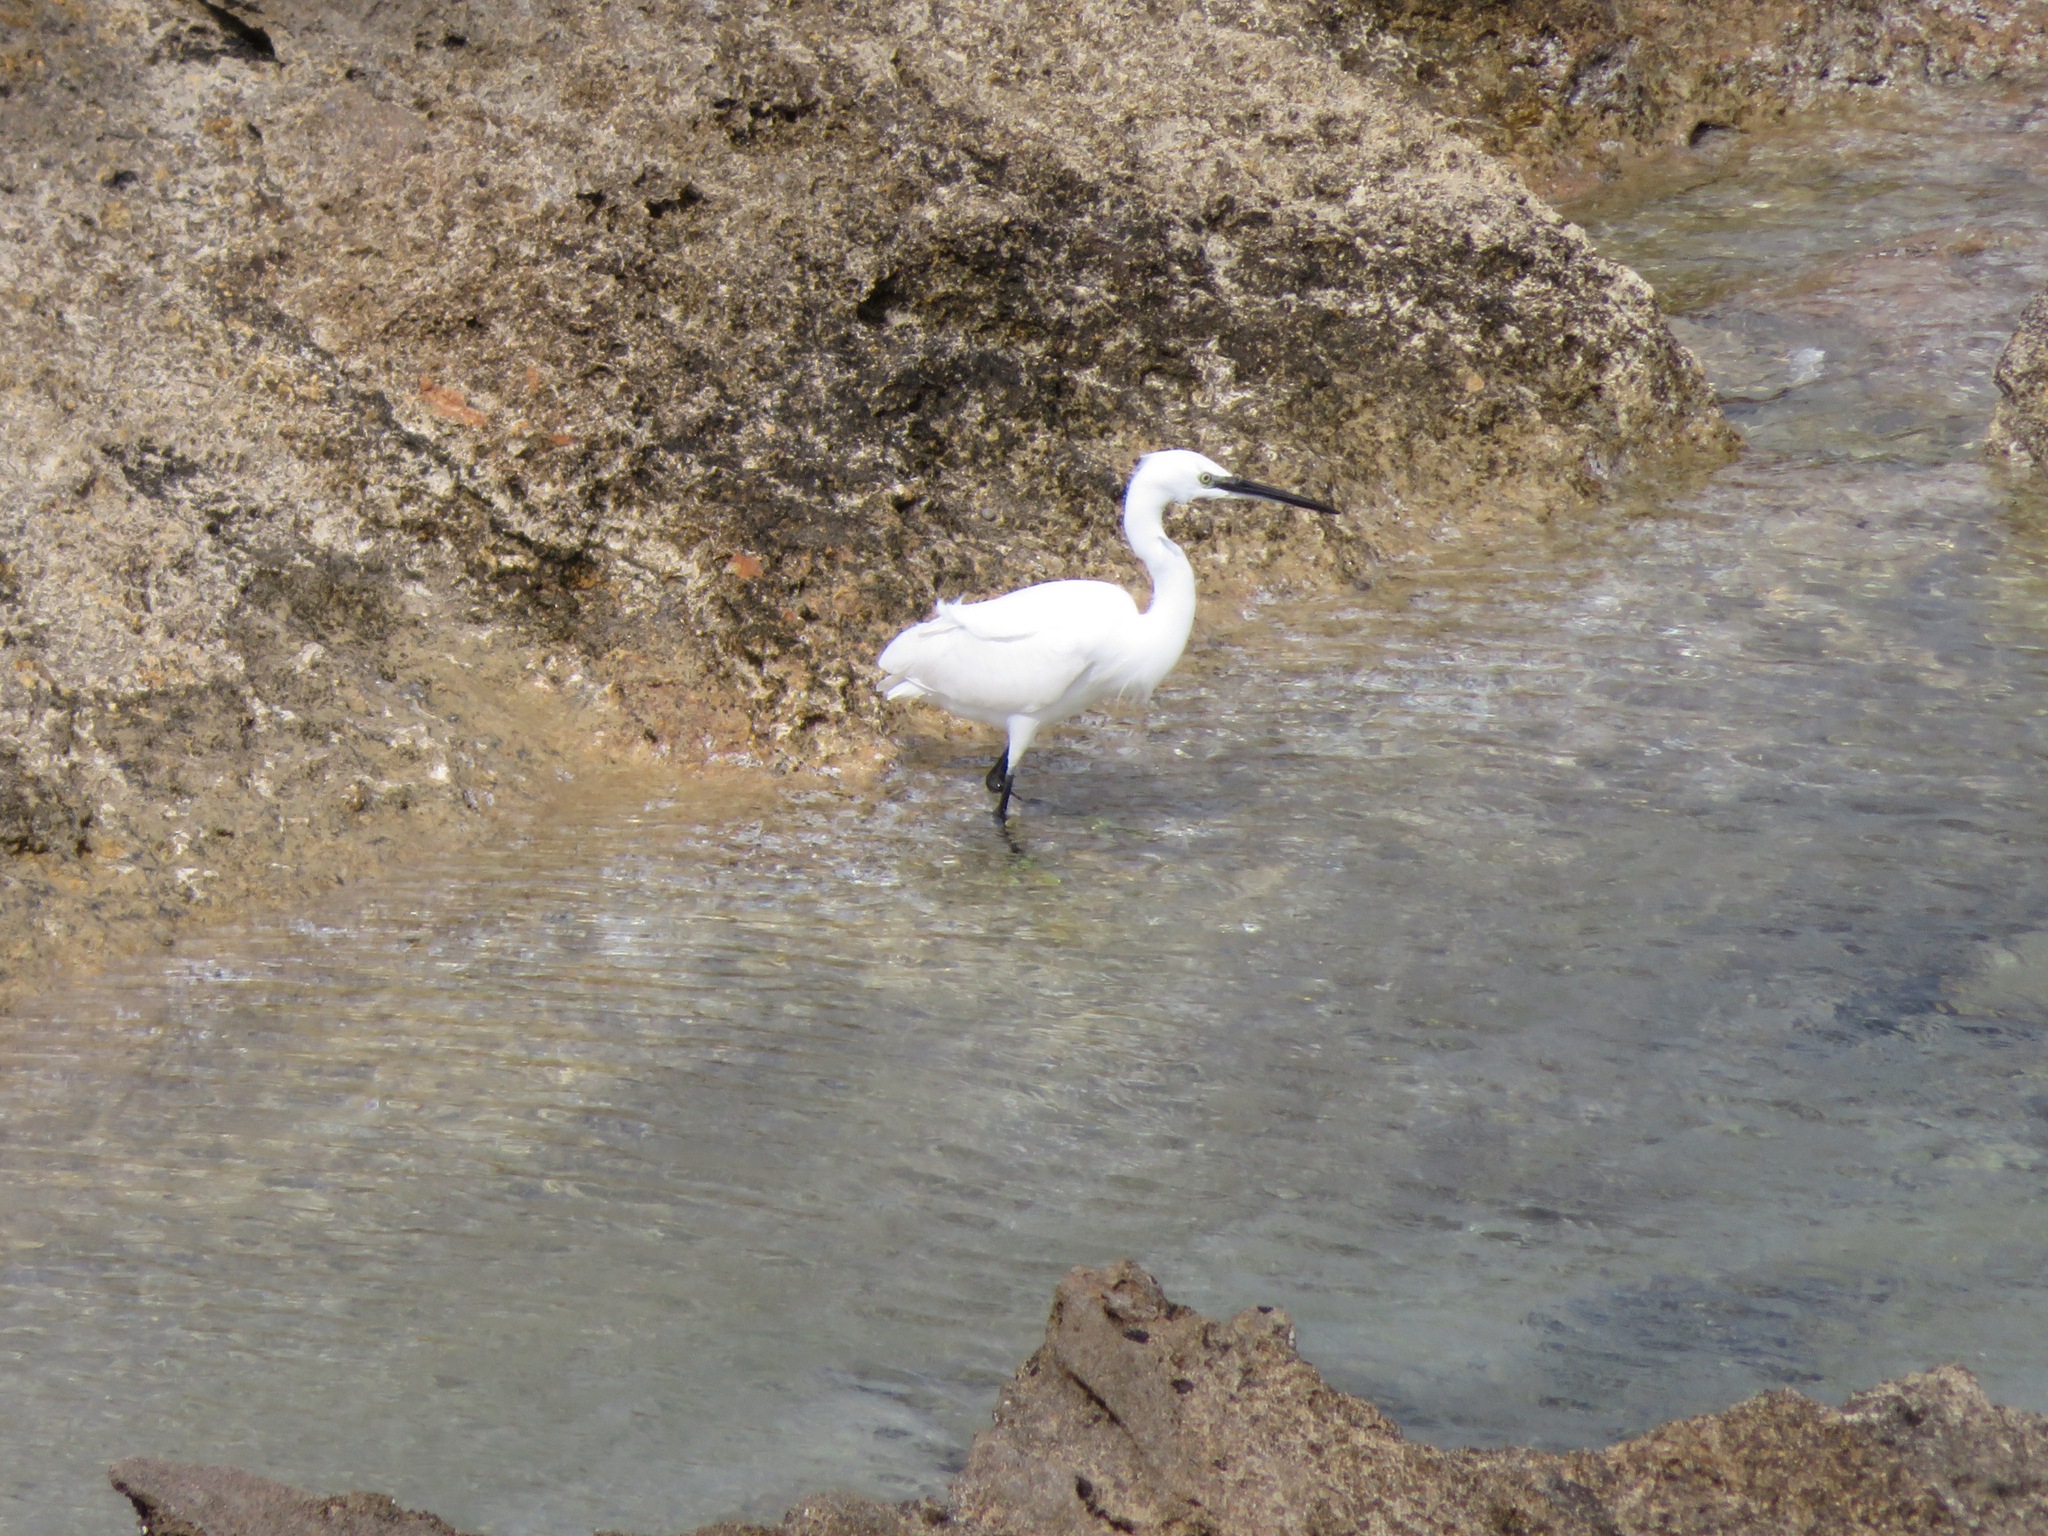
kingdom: Animalia
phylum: Chordata
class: Aves
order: Pelecaniformes
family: Ardeidae
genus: Egretta
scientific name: Egretta garzetta
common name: Little egret
